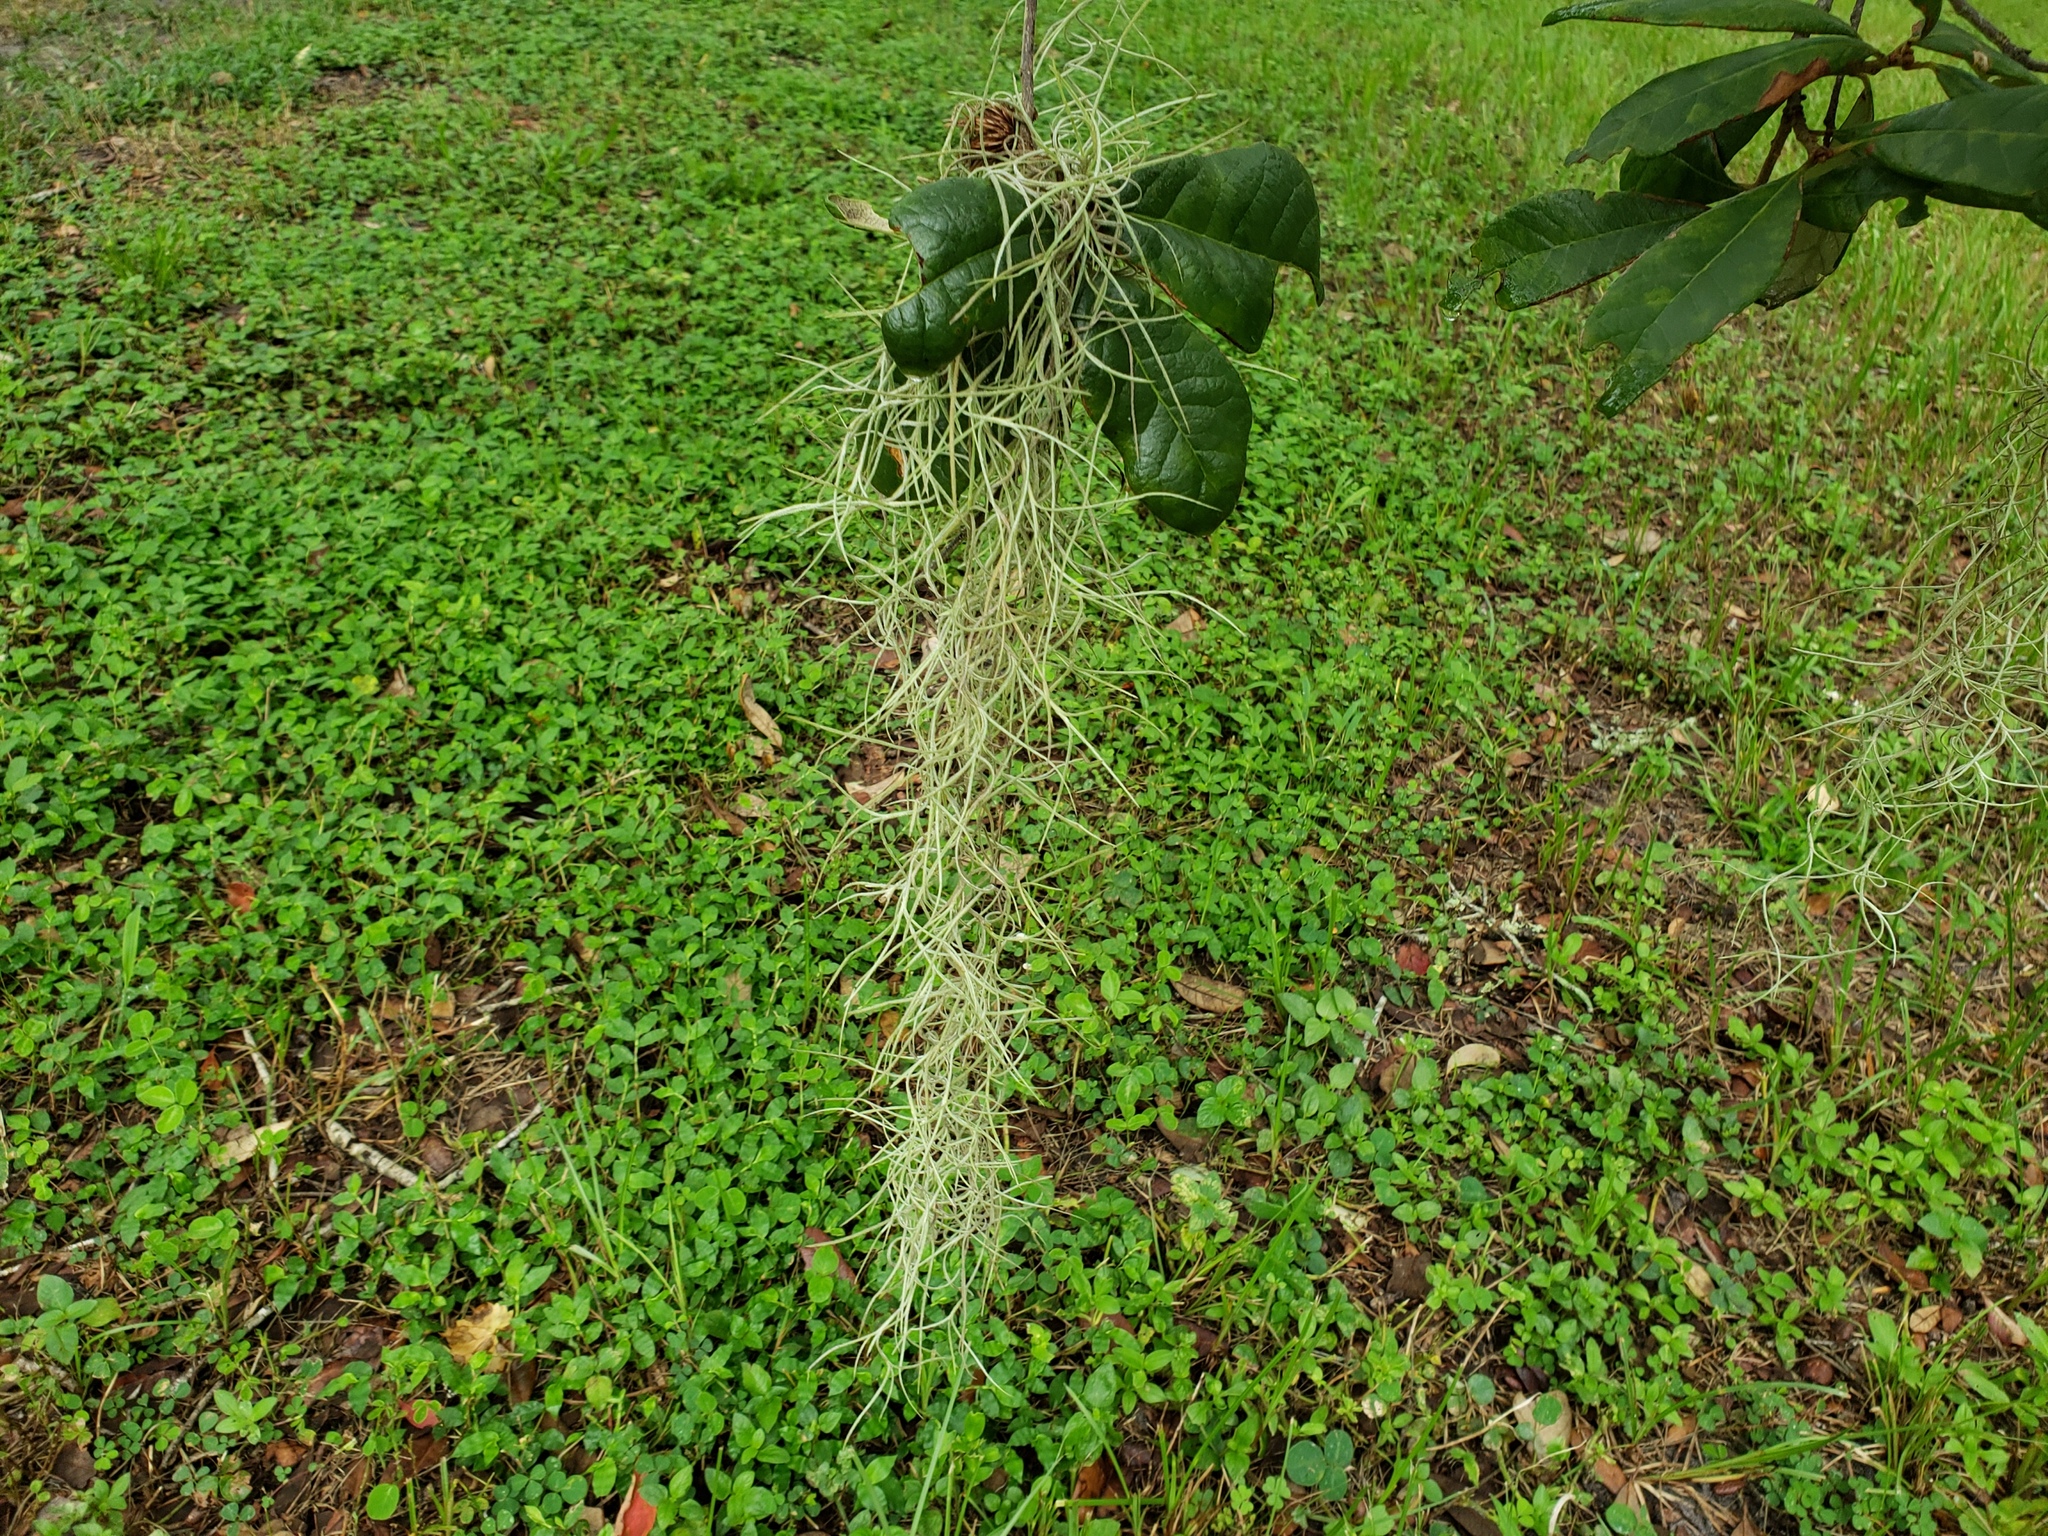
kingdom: Plantae
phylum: Tracheophyta
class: Liliopsida
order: Poales
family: Bromeliaceae
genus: Tillandsia
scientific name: Tillandsia usneoides
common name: Spanish moss
